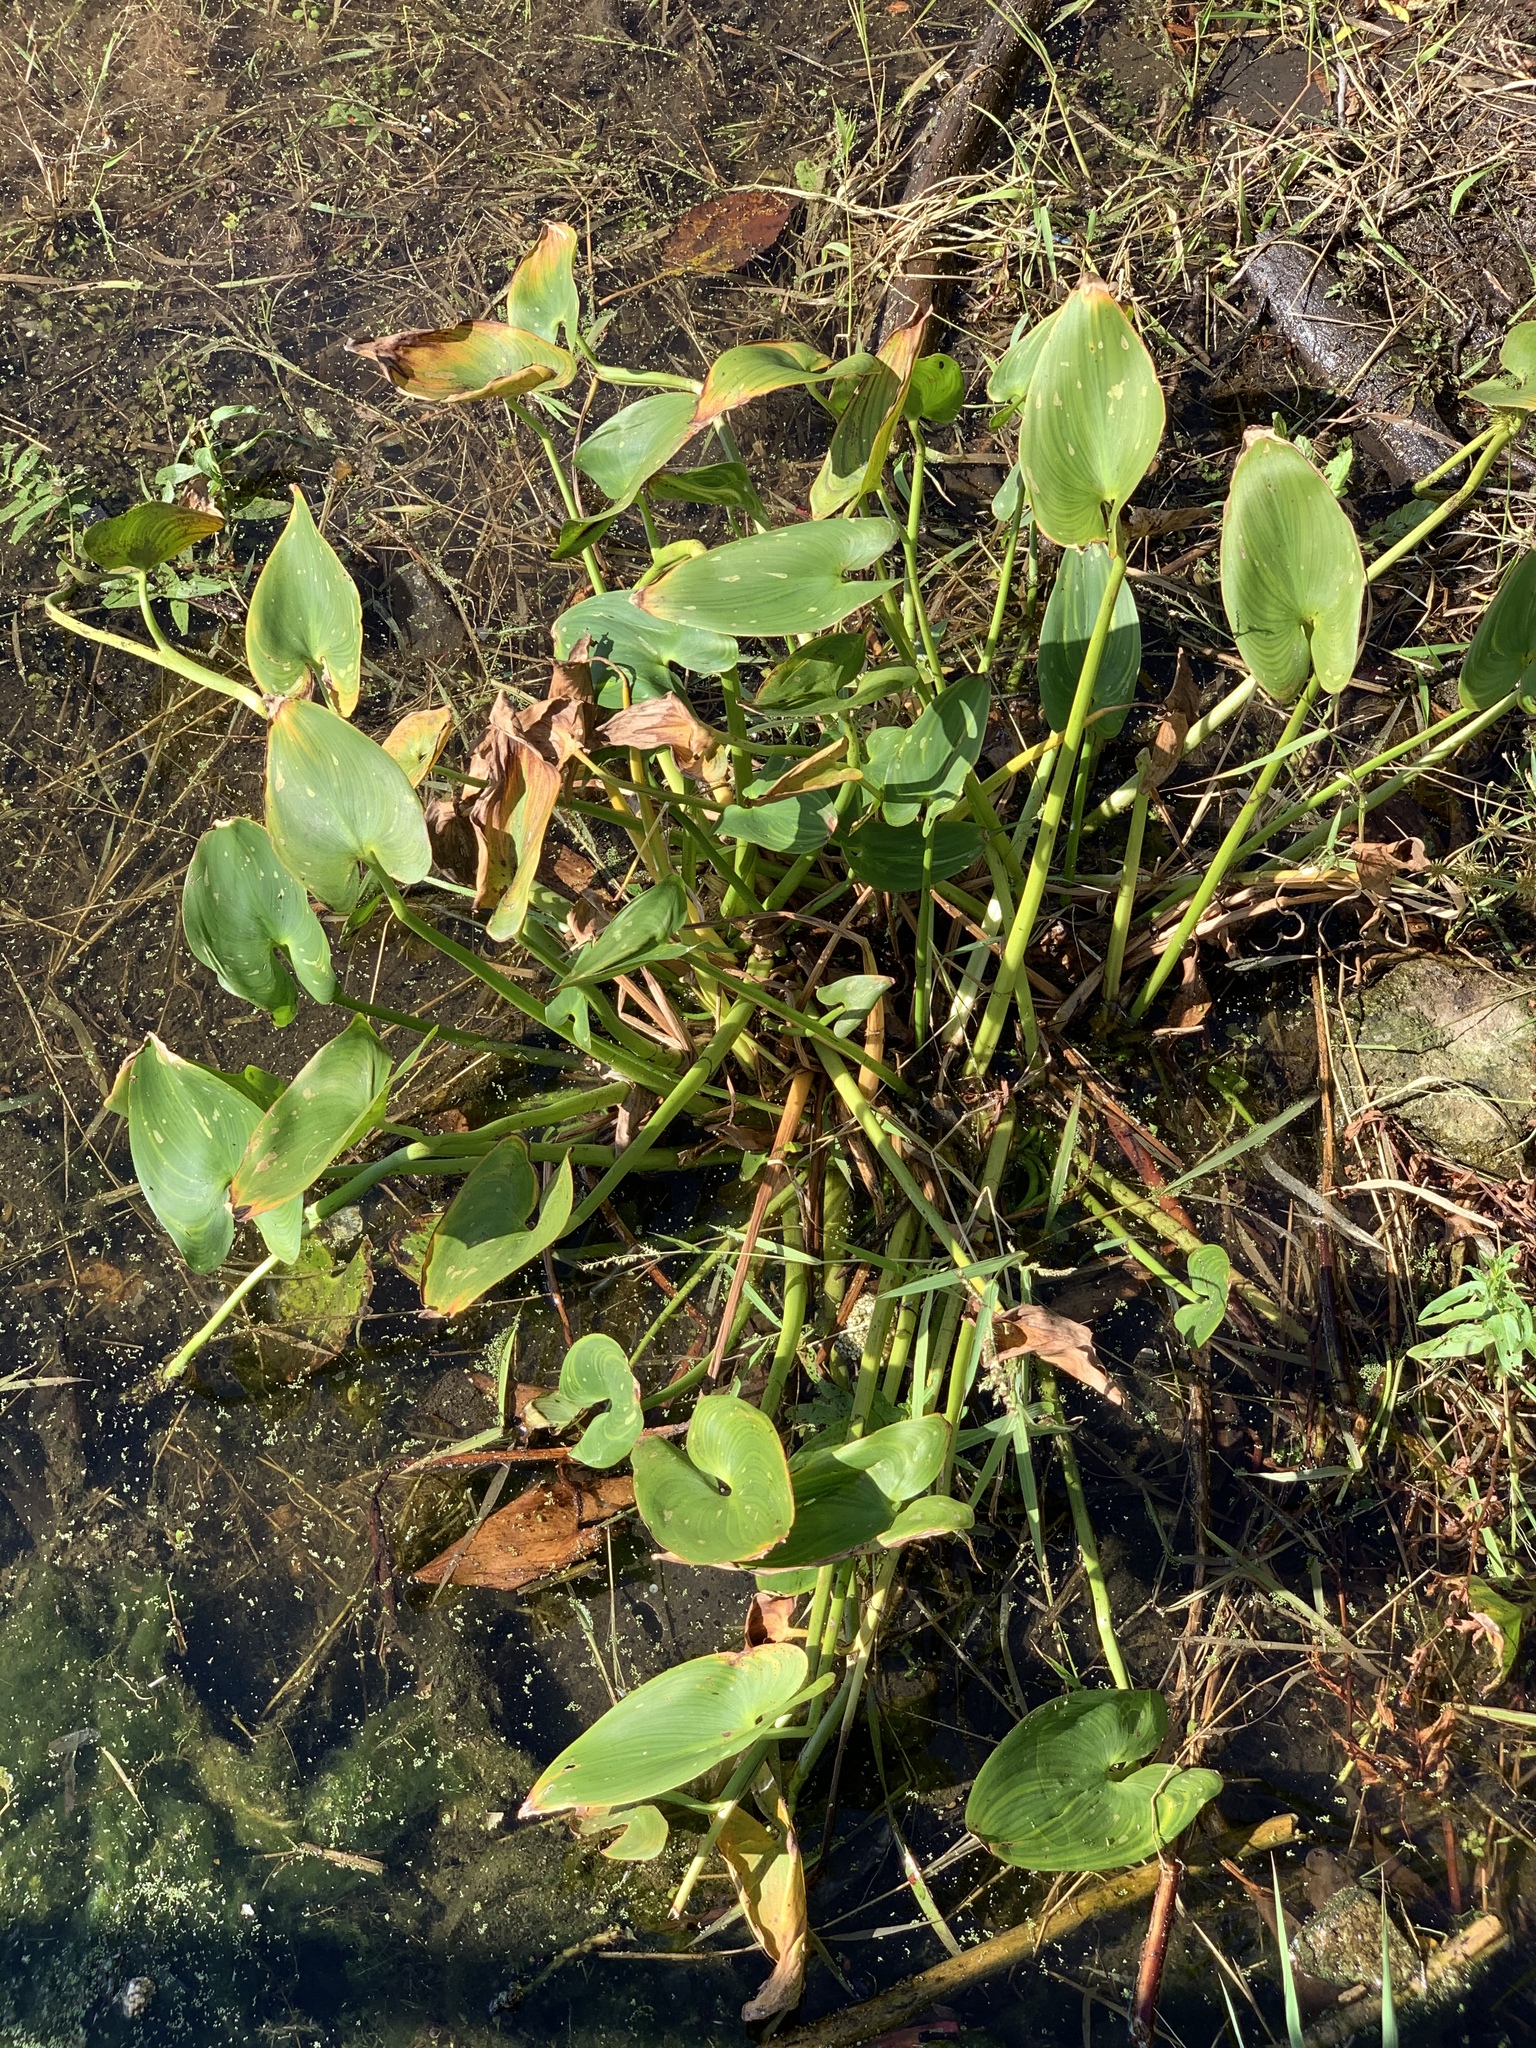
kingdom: Plantae
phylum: Tracheophyta
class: Liliopsida
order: Commelinales
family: Pontederiaceae
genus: Pontederia
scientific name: Pontederia cordata
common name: Pickerelweed
